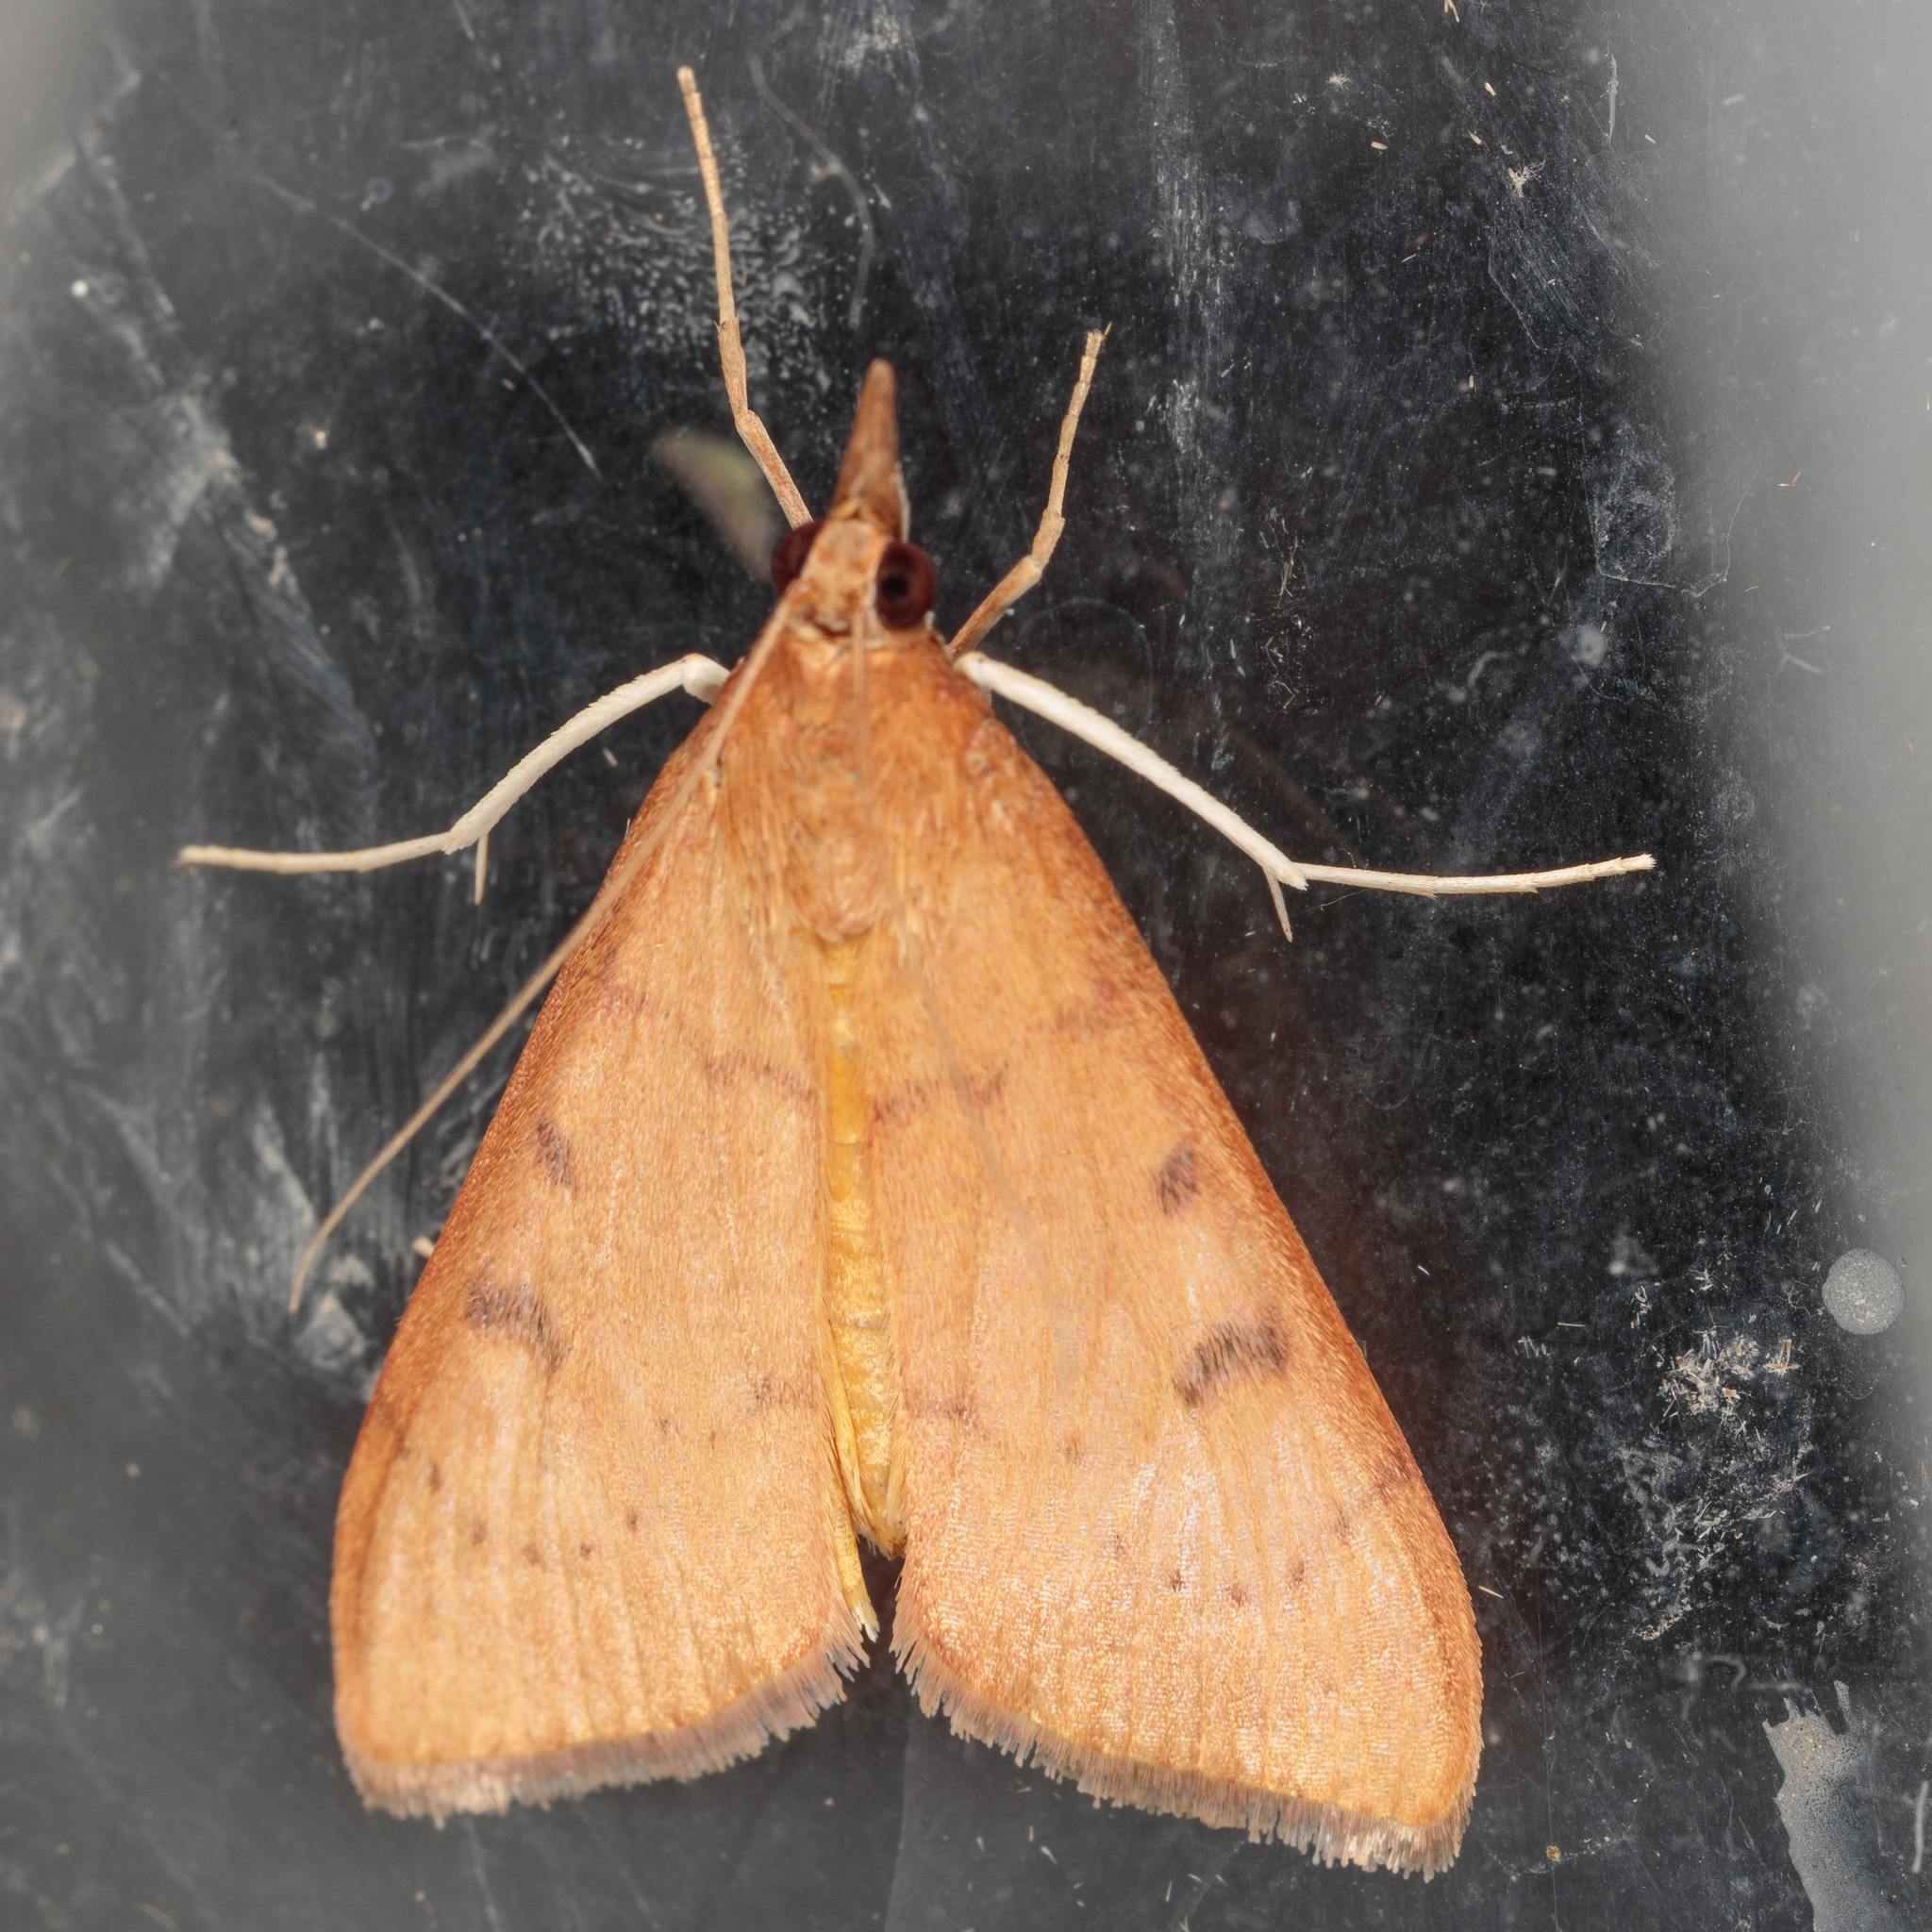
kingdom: Animalia
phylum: Arthropoda
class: Insecta
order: Lepidoptera
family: Crambidae
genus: Uresiphita
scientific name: Uresiphita reversalis
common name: Genista broom moth
